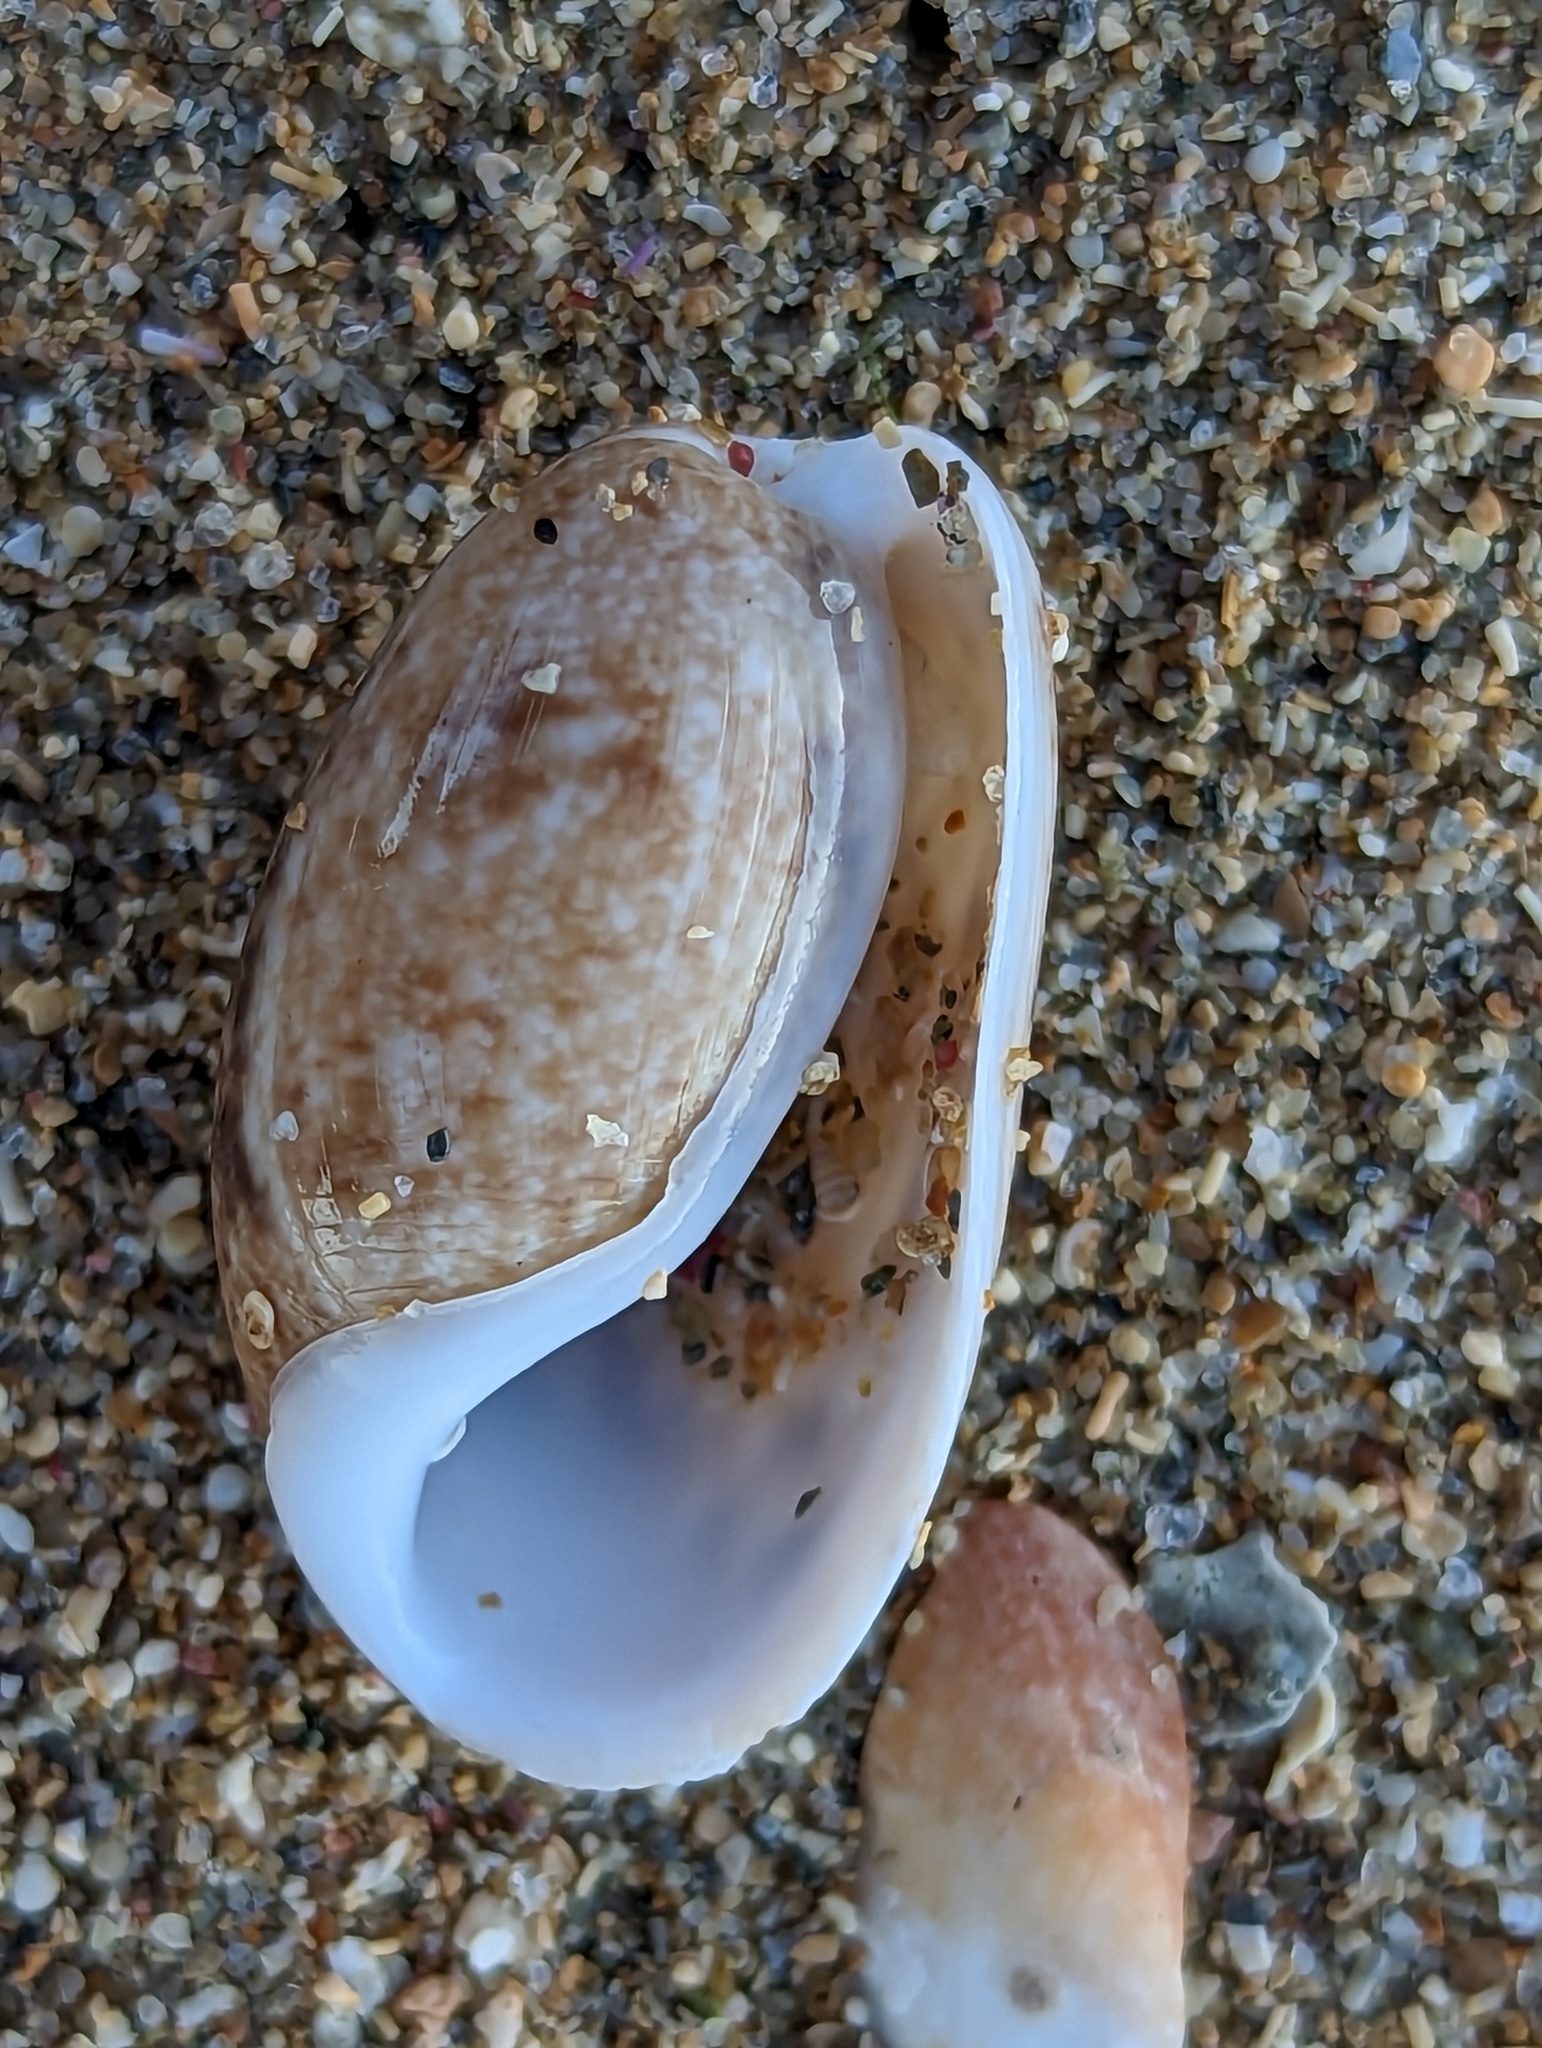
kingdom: Animalia
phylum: Mollusca
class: Gastropoda
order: Cephalaspidea
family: Bullidae
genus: Bulla
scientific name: Bulla occidentalis
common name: Common west-indian bubble
